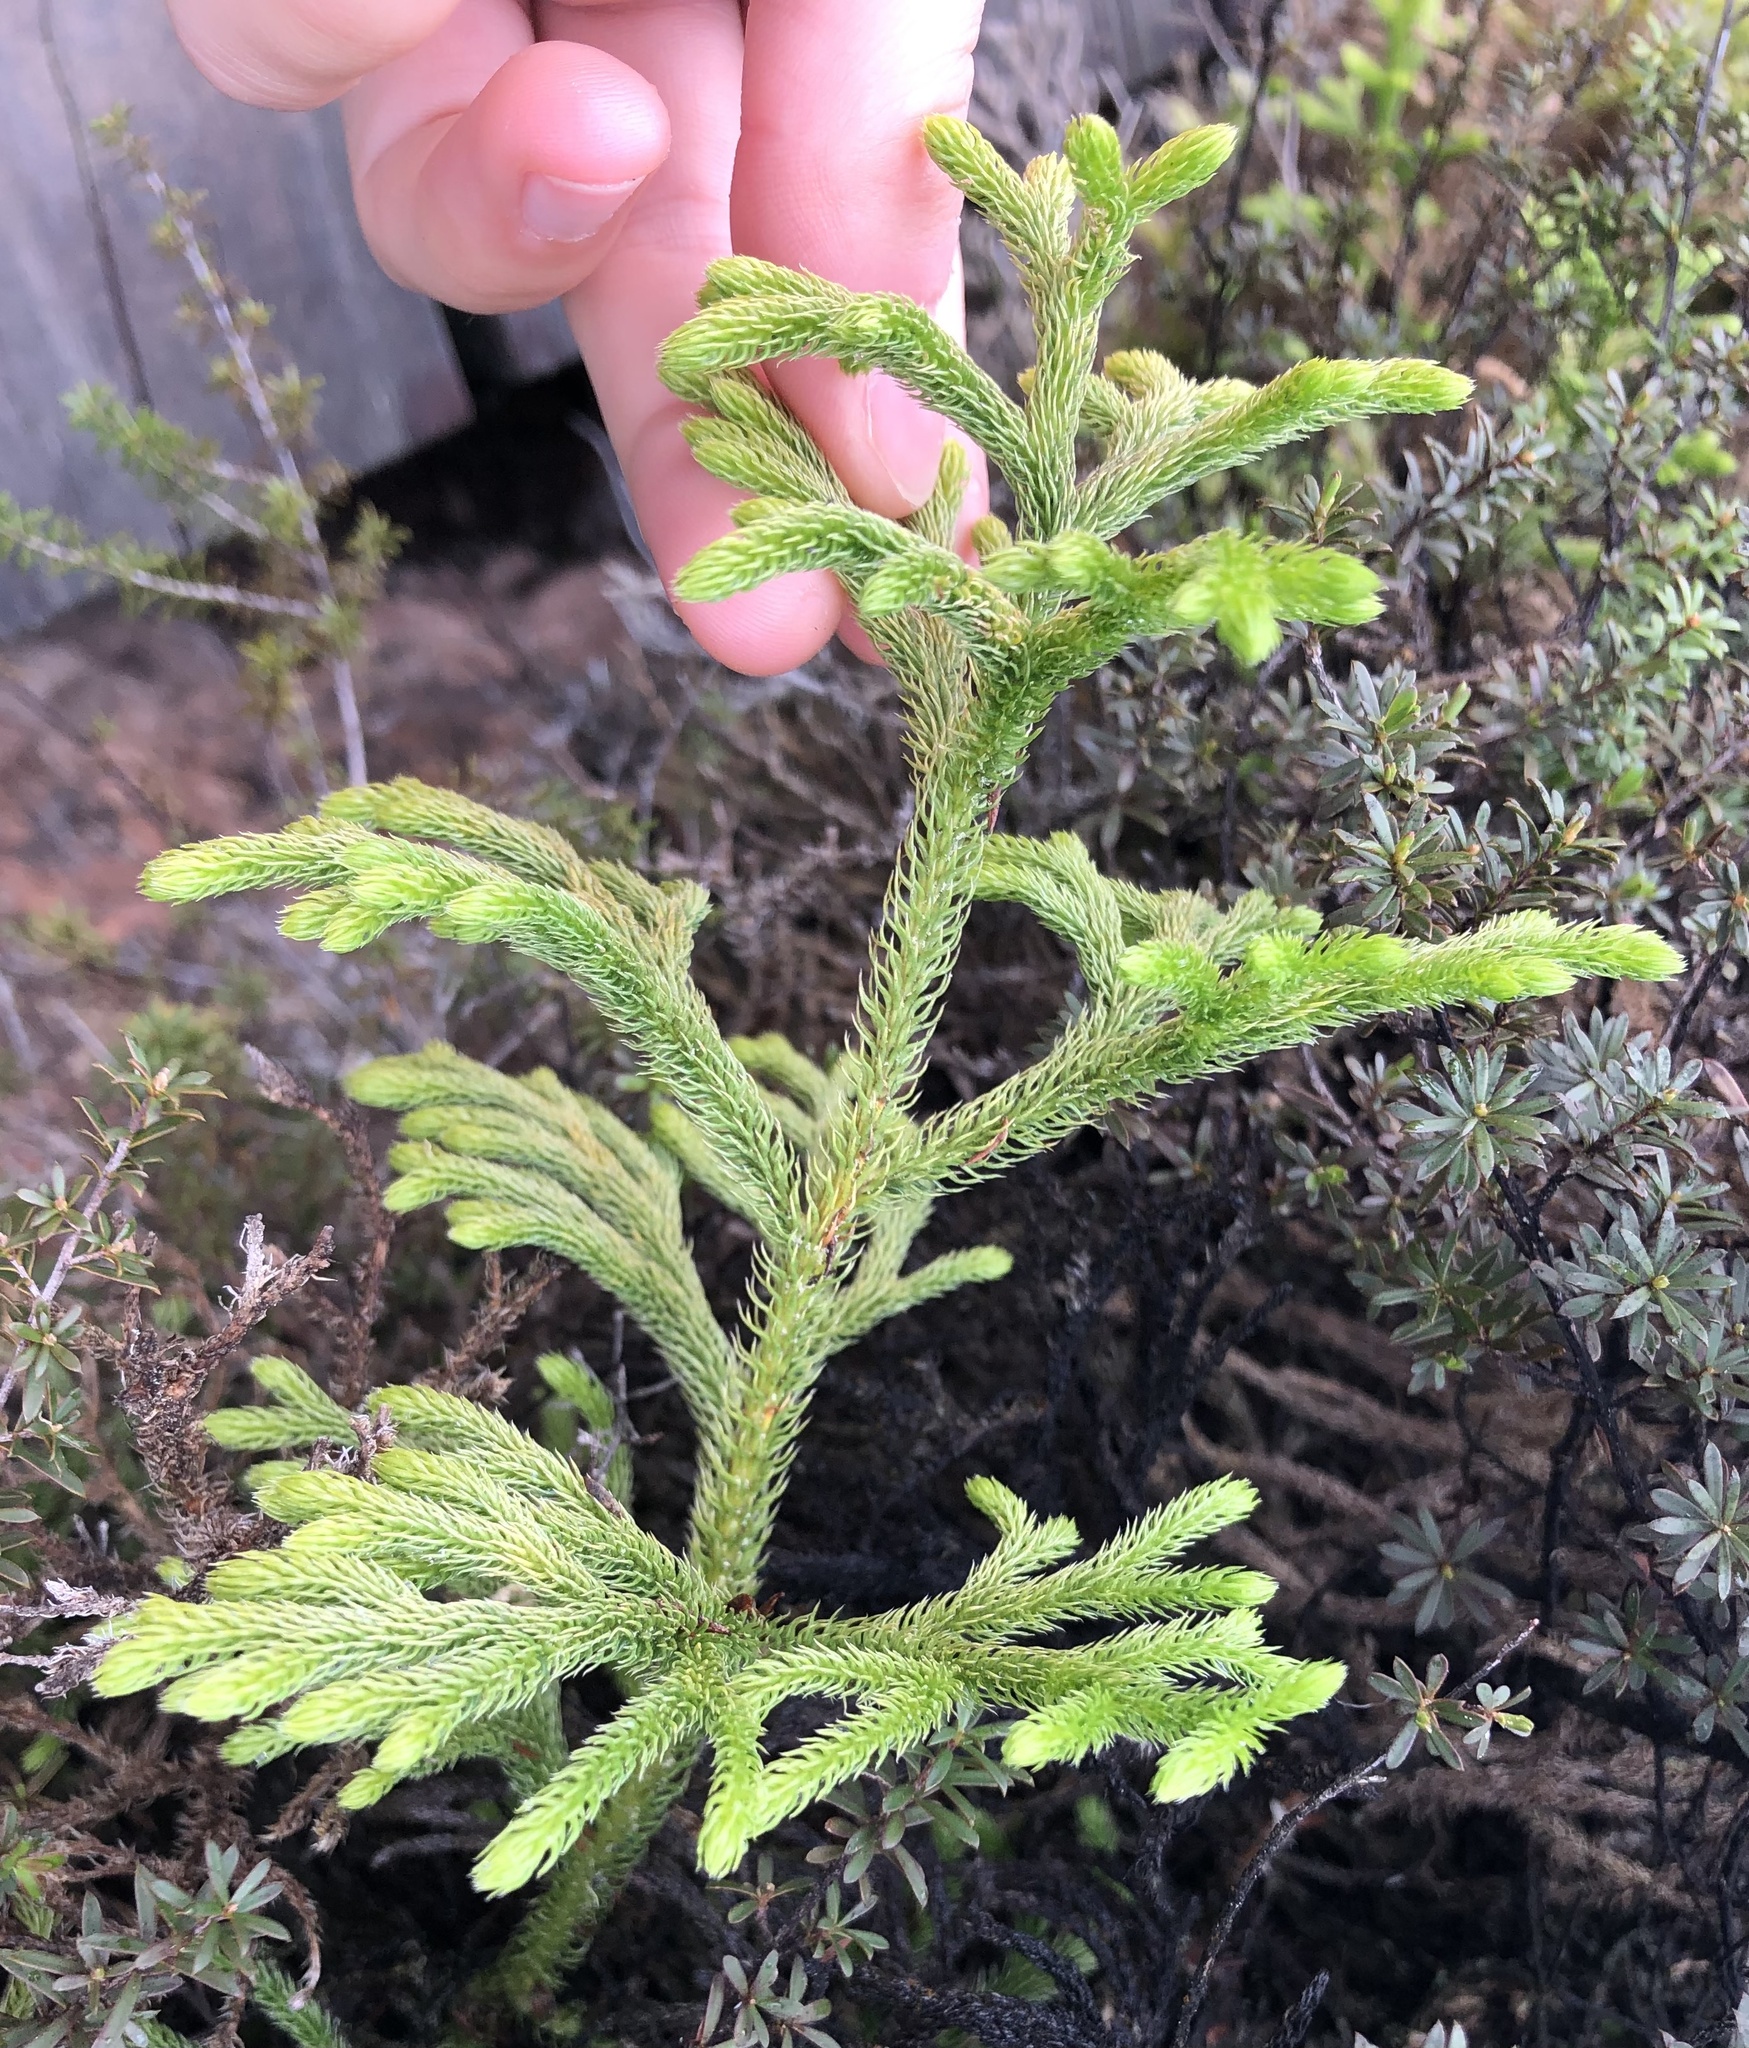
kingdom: Plantae
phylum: Tracheophyta
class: Lycopodiopsida
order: Lycopodiales
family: Lycopodiaceae
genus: Palhinhaea
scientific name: Palhinhaea cernua
